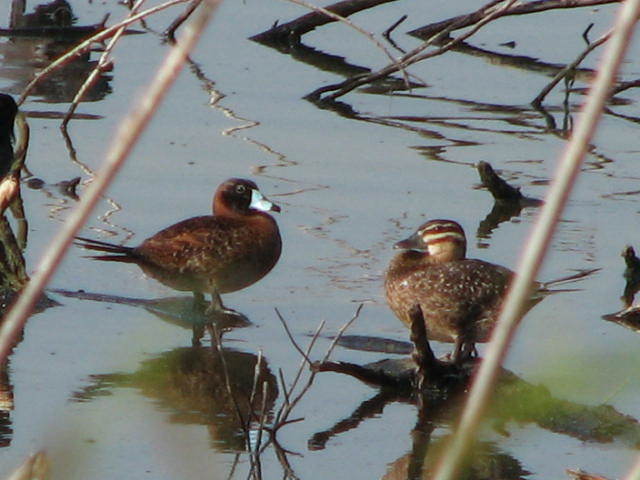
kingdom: Animalia
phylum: Chordata
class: Aves
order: Anseriformes
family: Anatidae
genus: Nomonyx
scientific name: Nomonyx dominicus
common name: Masked duck
